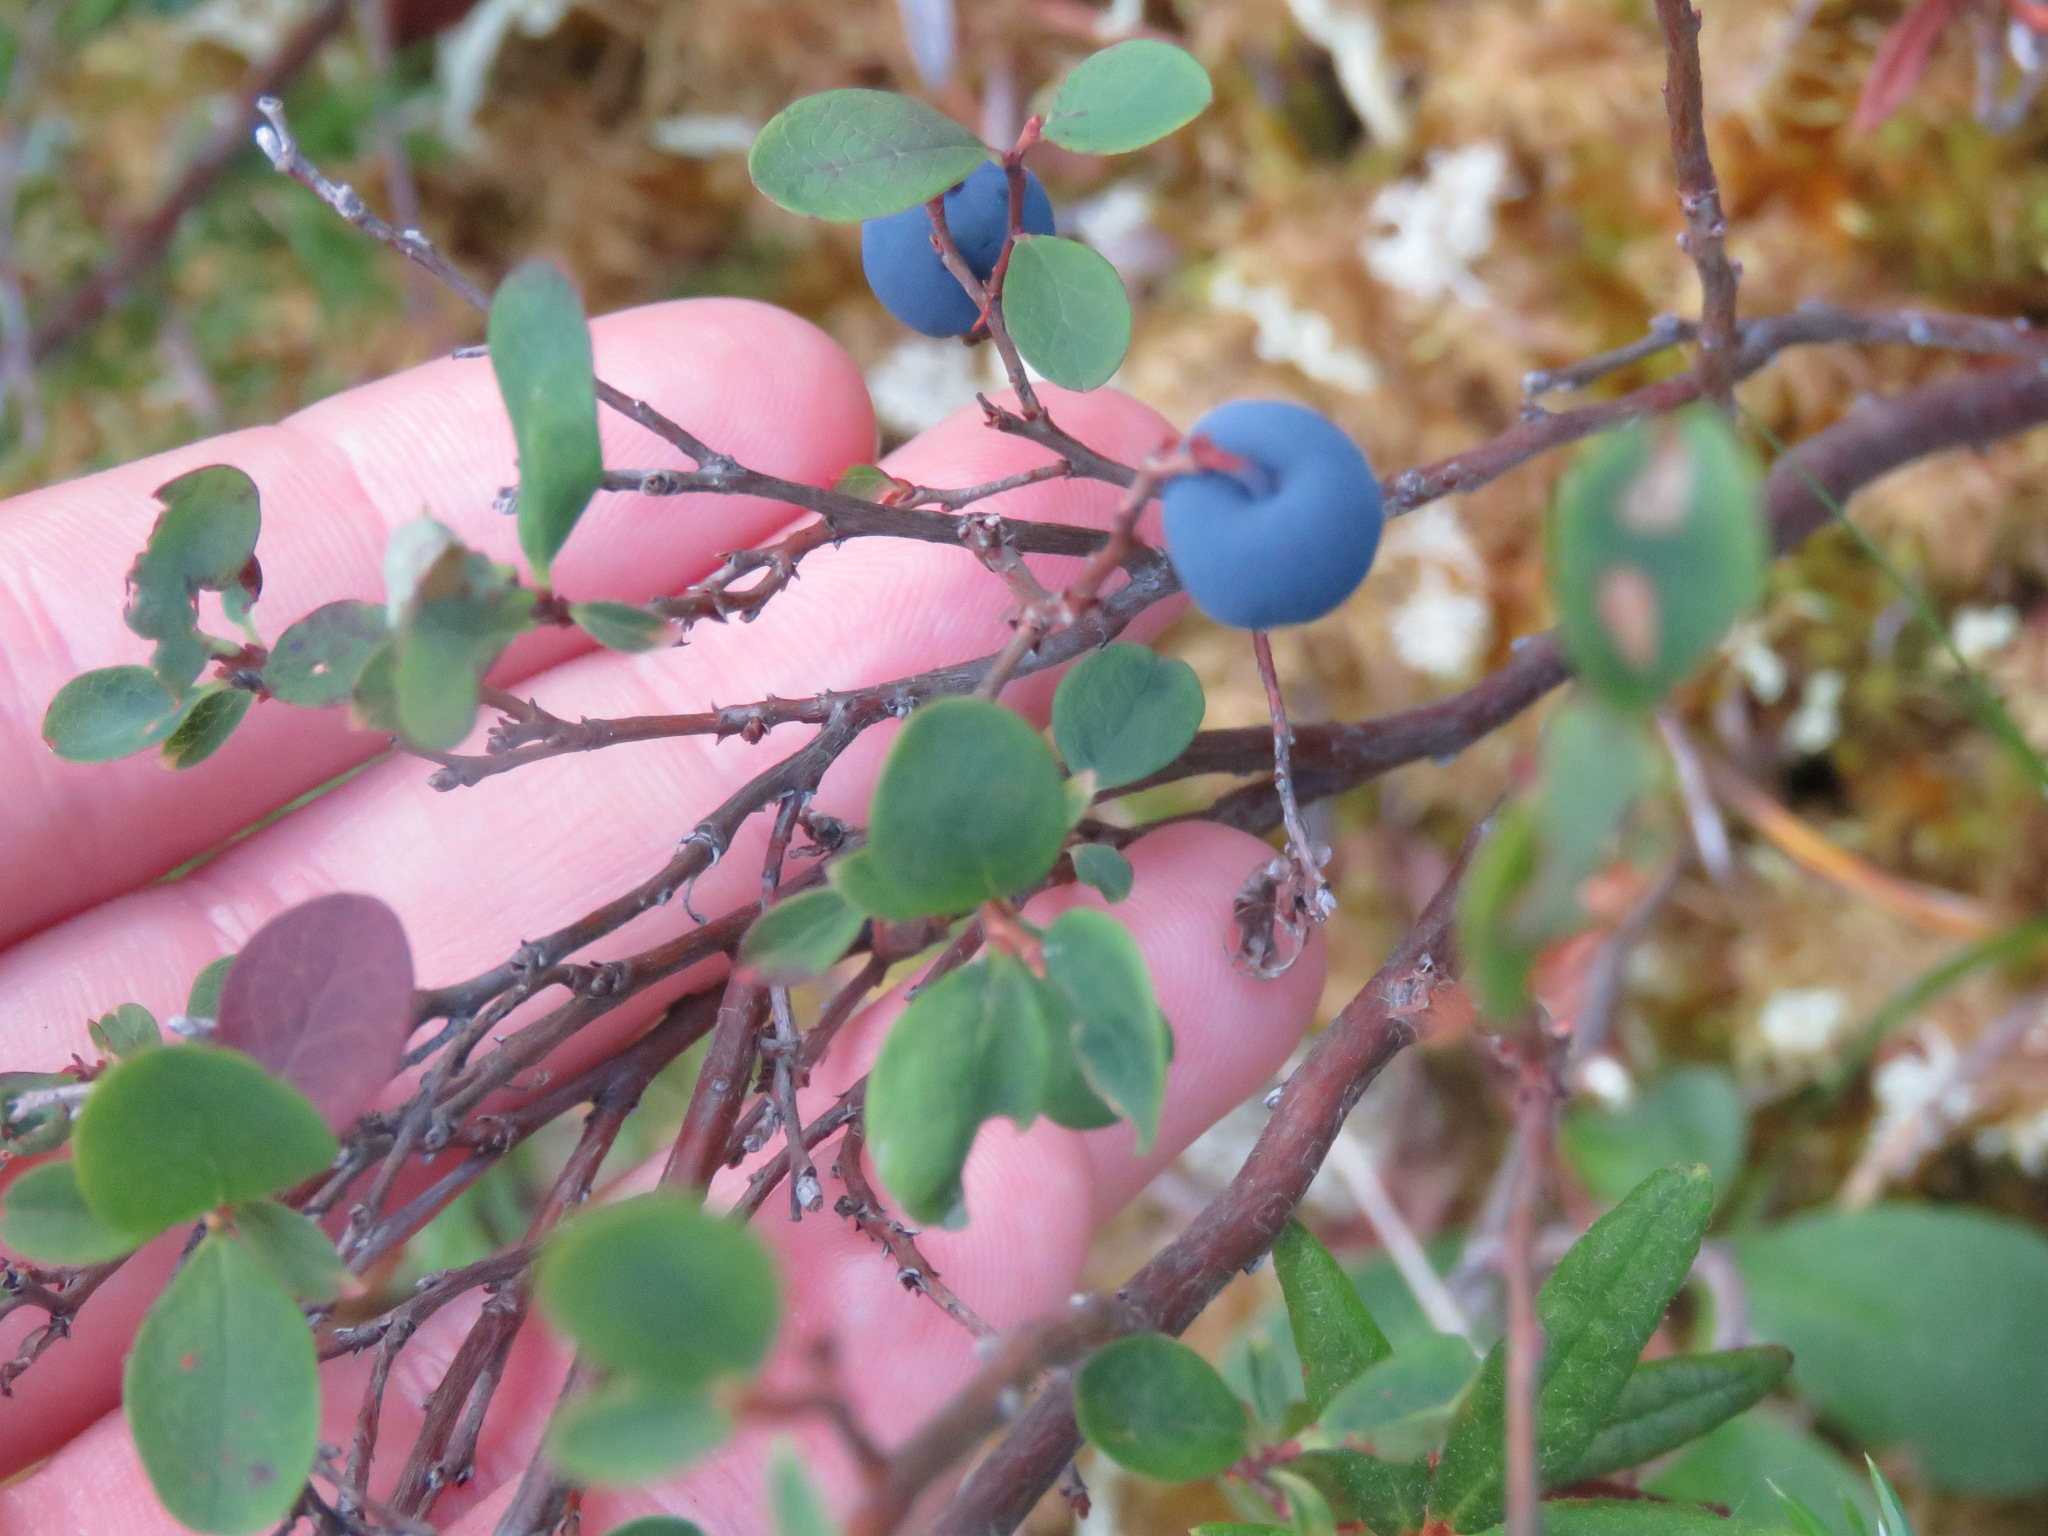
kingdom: Plantae
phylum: Tracheophyta
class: Magnoliopsida
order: Ericales
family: Ericaceae
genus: Vaccinium
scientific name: Vaccinium uliginosum
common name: Bog bilberry
